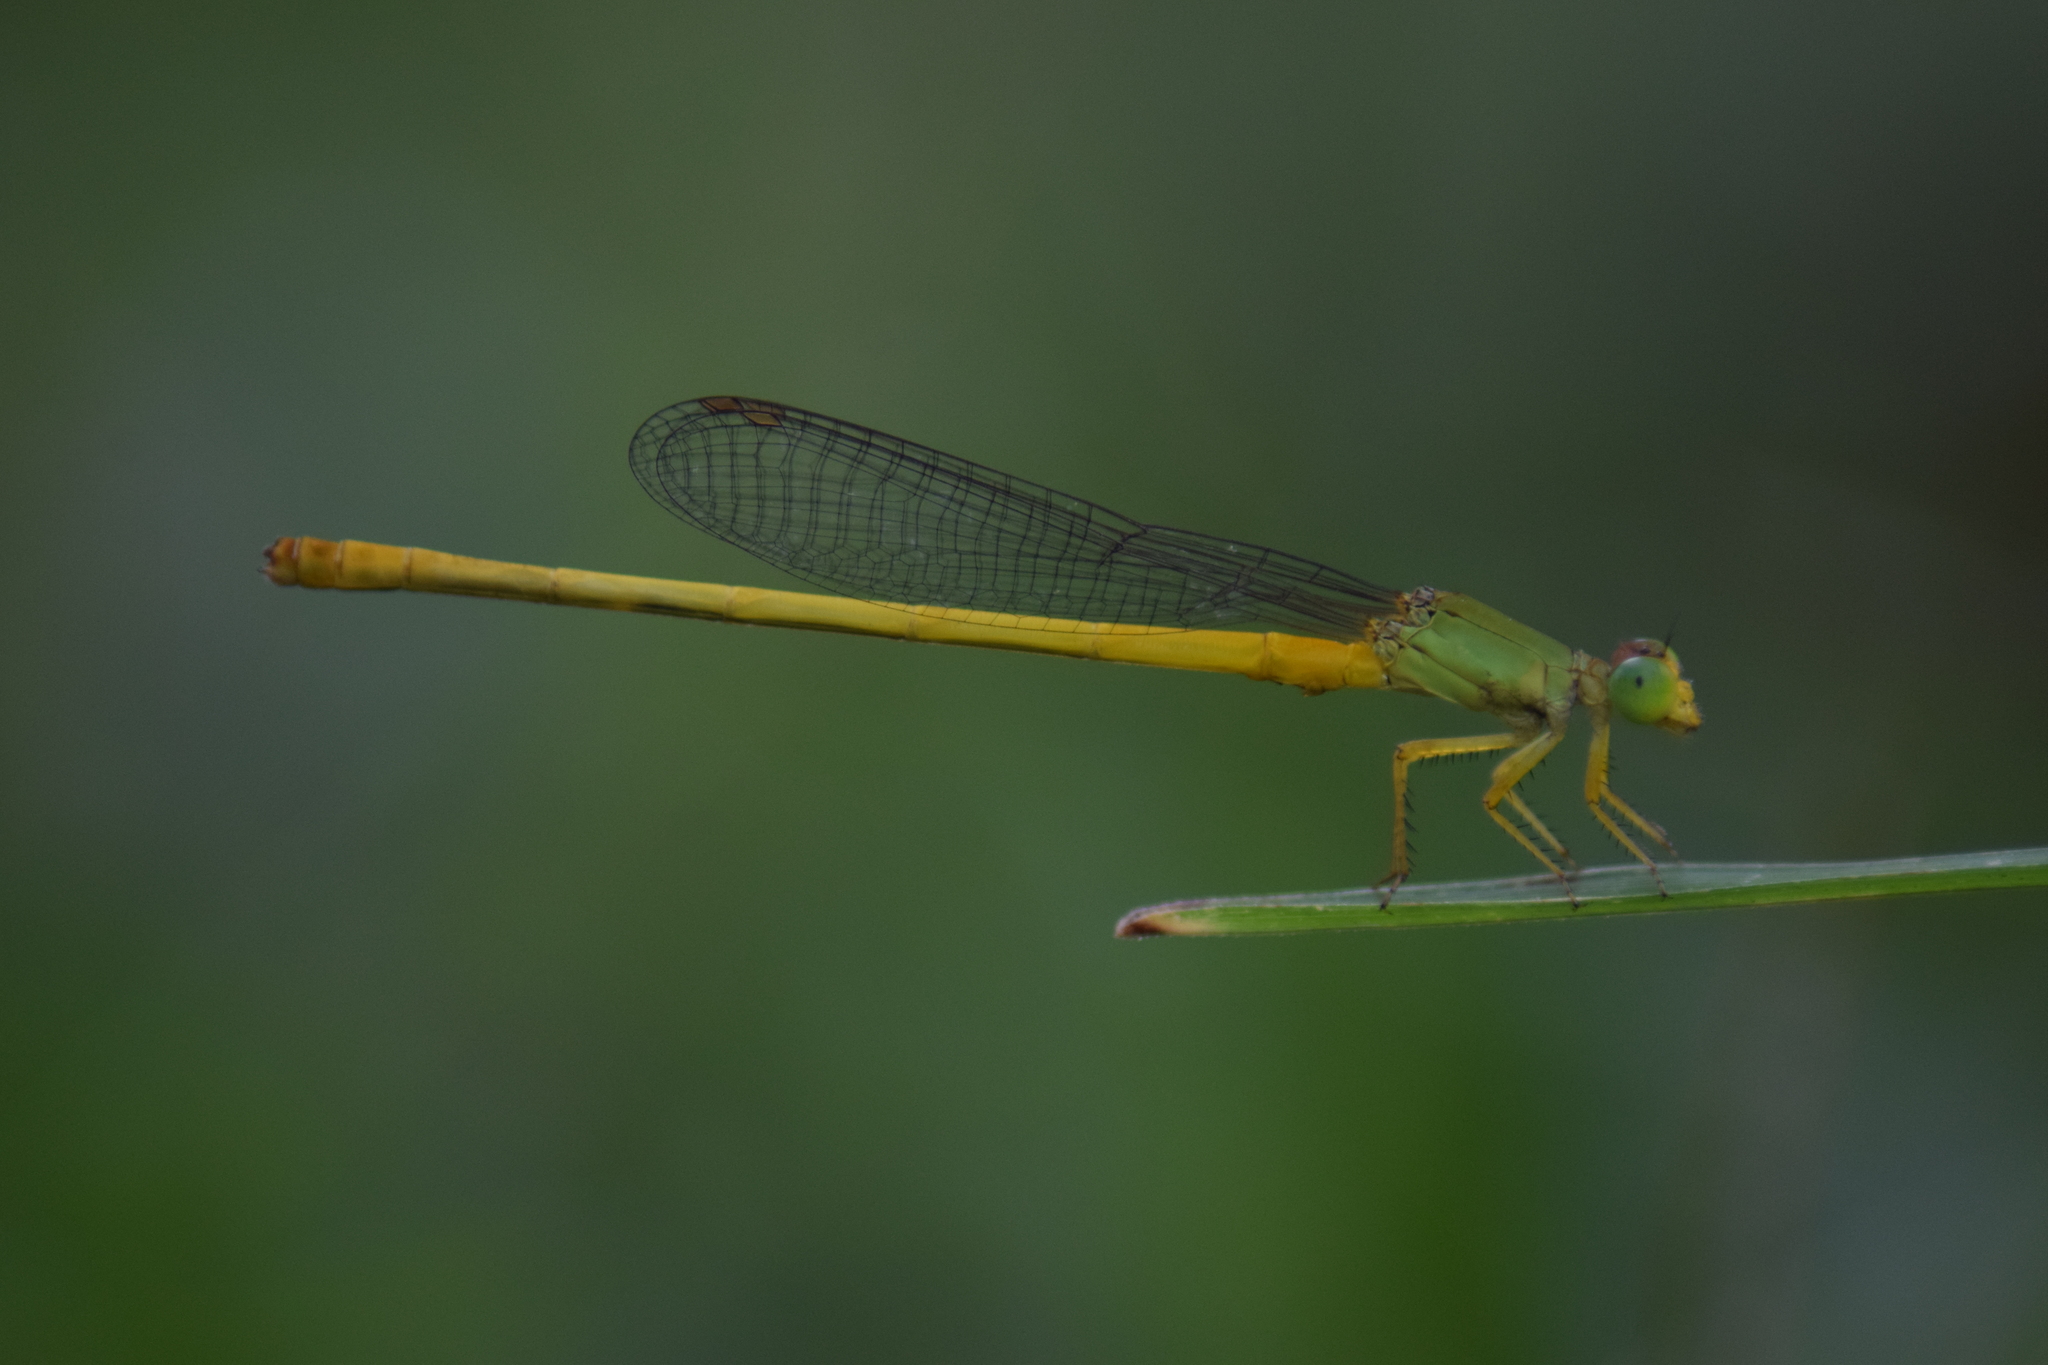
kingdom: Animalia
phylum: Arthropoda
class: Insecta
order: Odonata
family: Coenagrionidae
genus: Ceriagrion
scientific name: Ceriagrion coromandelianum
